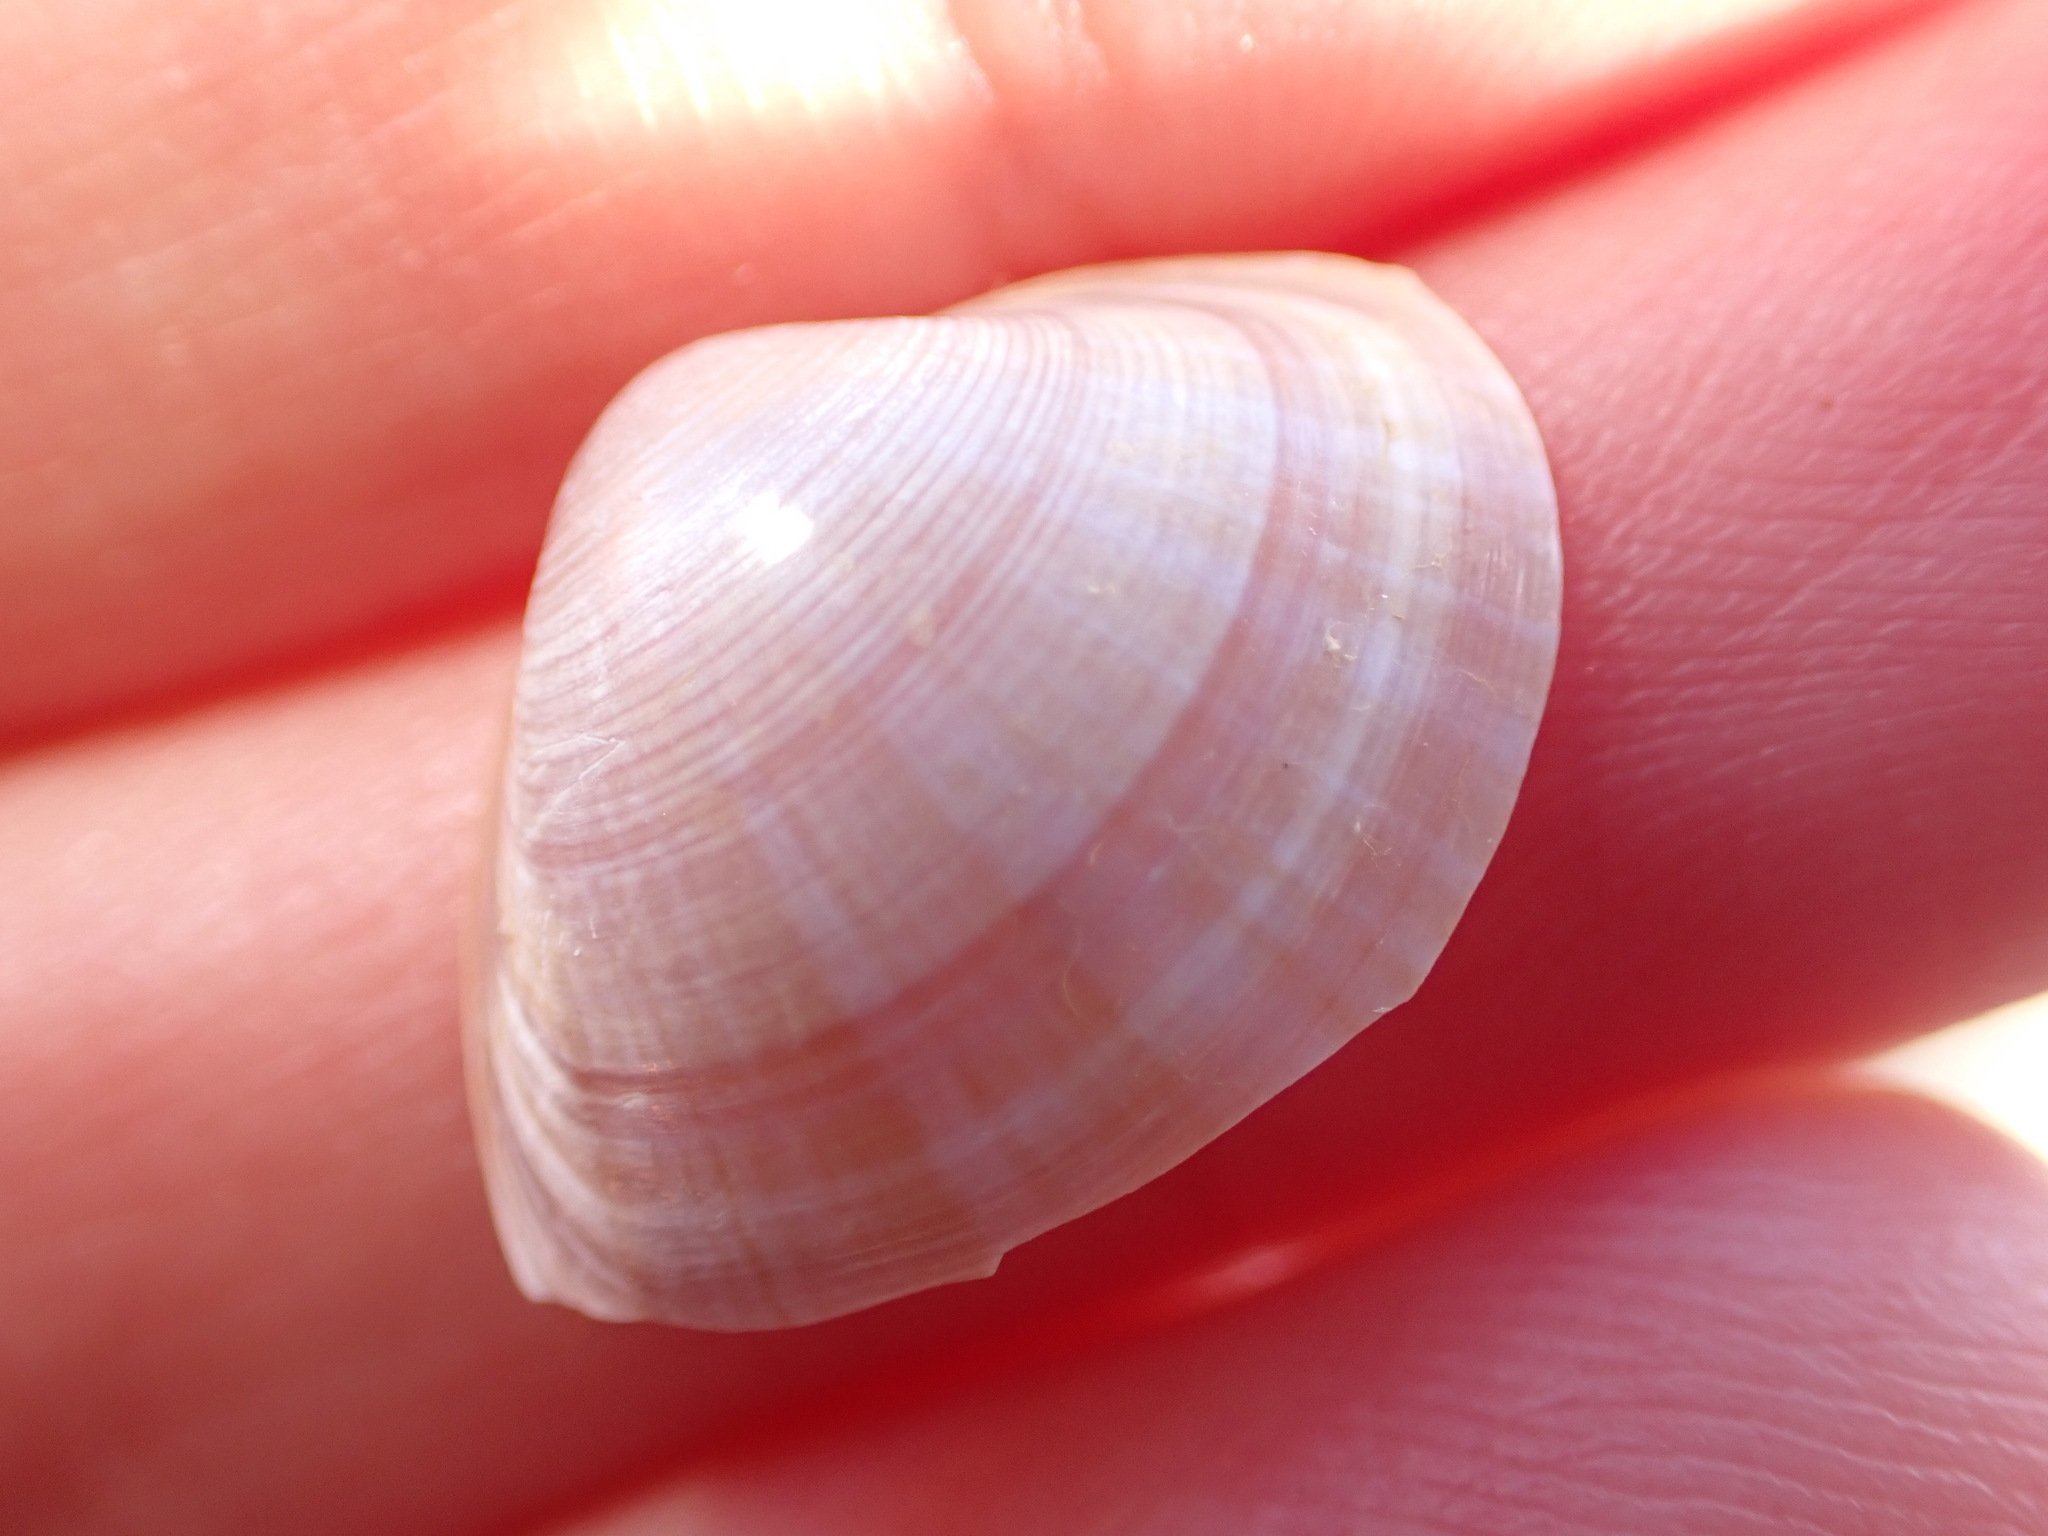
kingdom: Animalia
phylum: Mollusca
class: Bivalvia
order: Venerida
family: Mactridae
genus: Mactra
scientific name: Mactra stultorum
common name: Rayed trough shell
